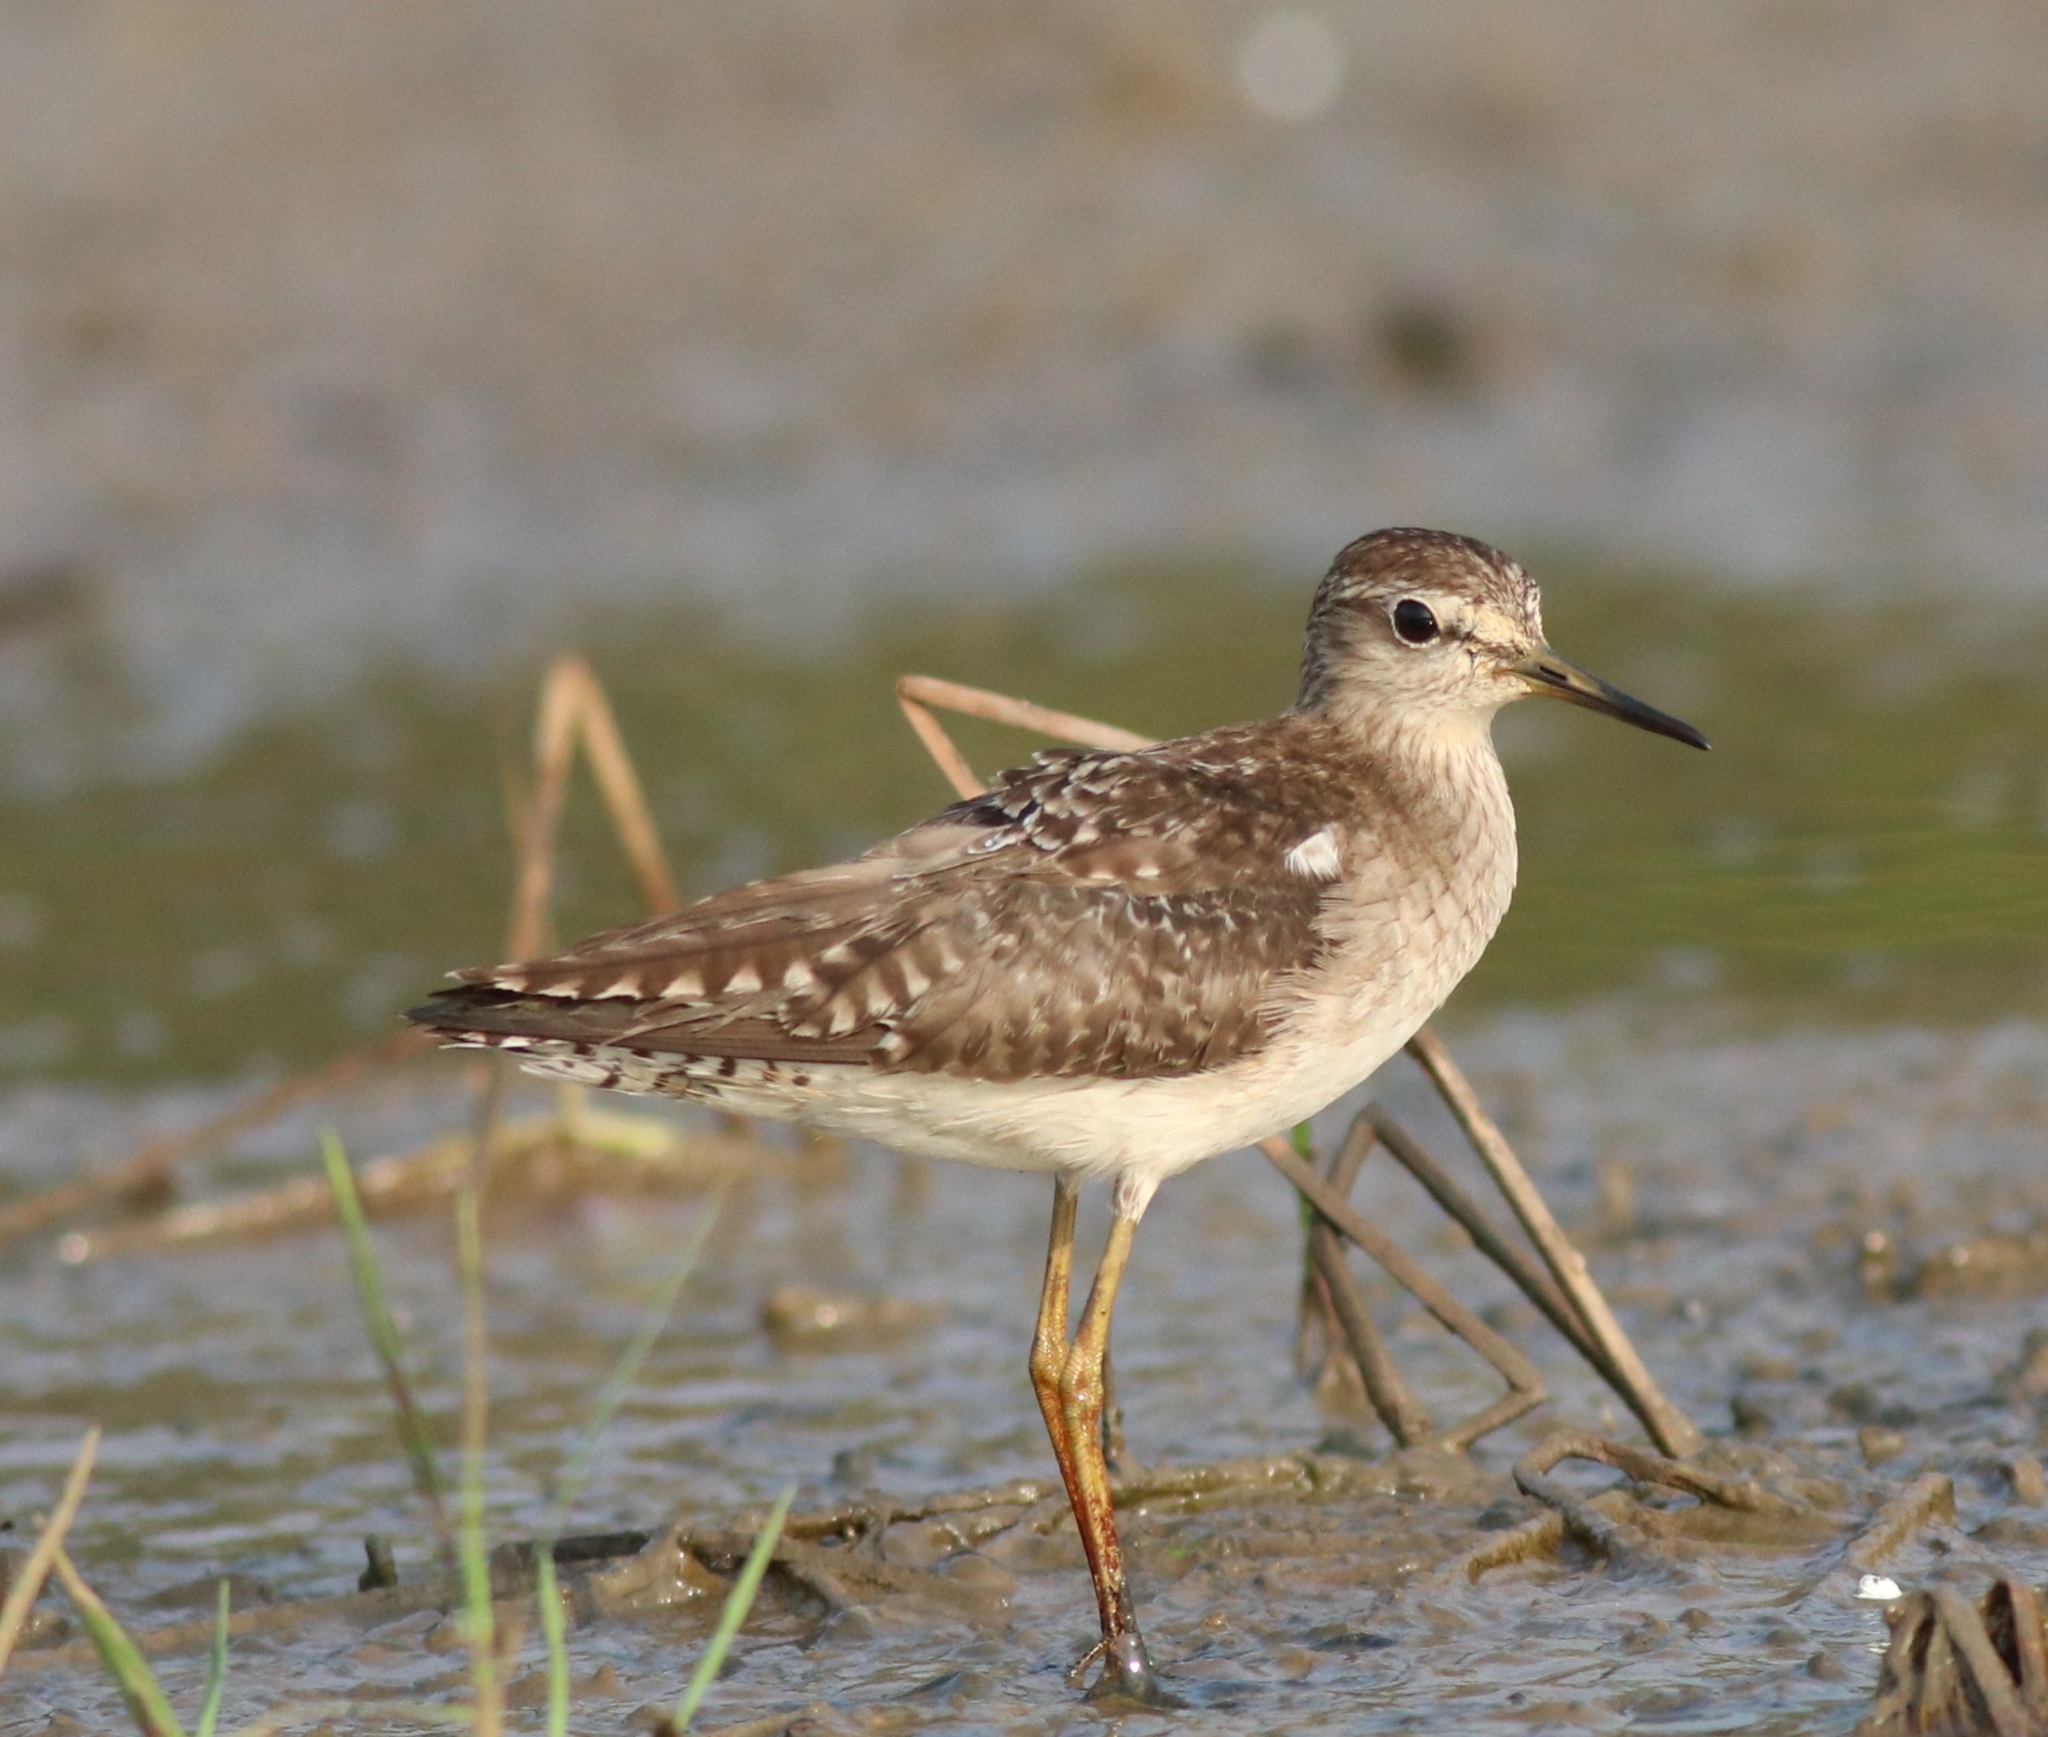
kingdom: Animalia
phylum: Chordata
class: Aves
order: Charadriiformes
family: Scolopacidae
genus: Tringa
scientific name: Tringa glareola
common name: Wood sandpiper
